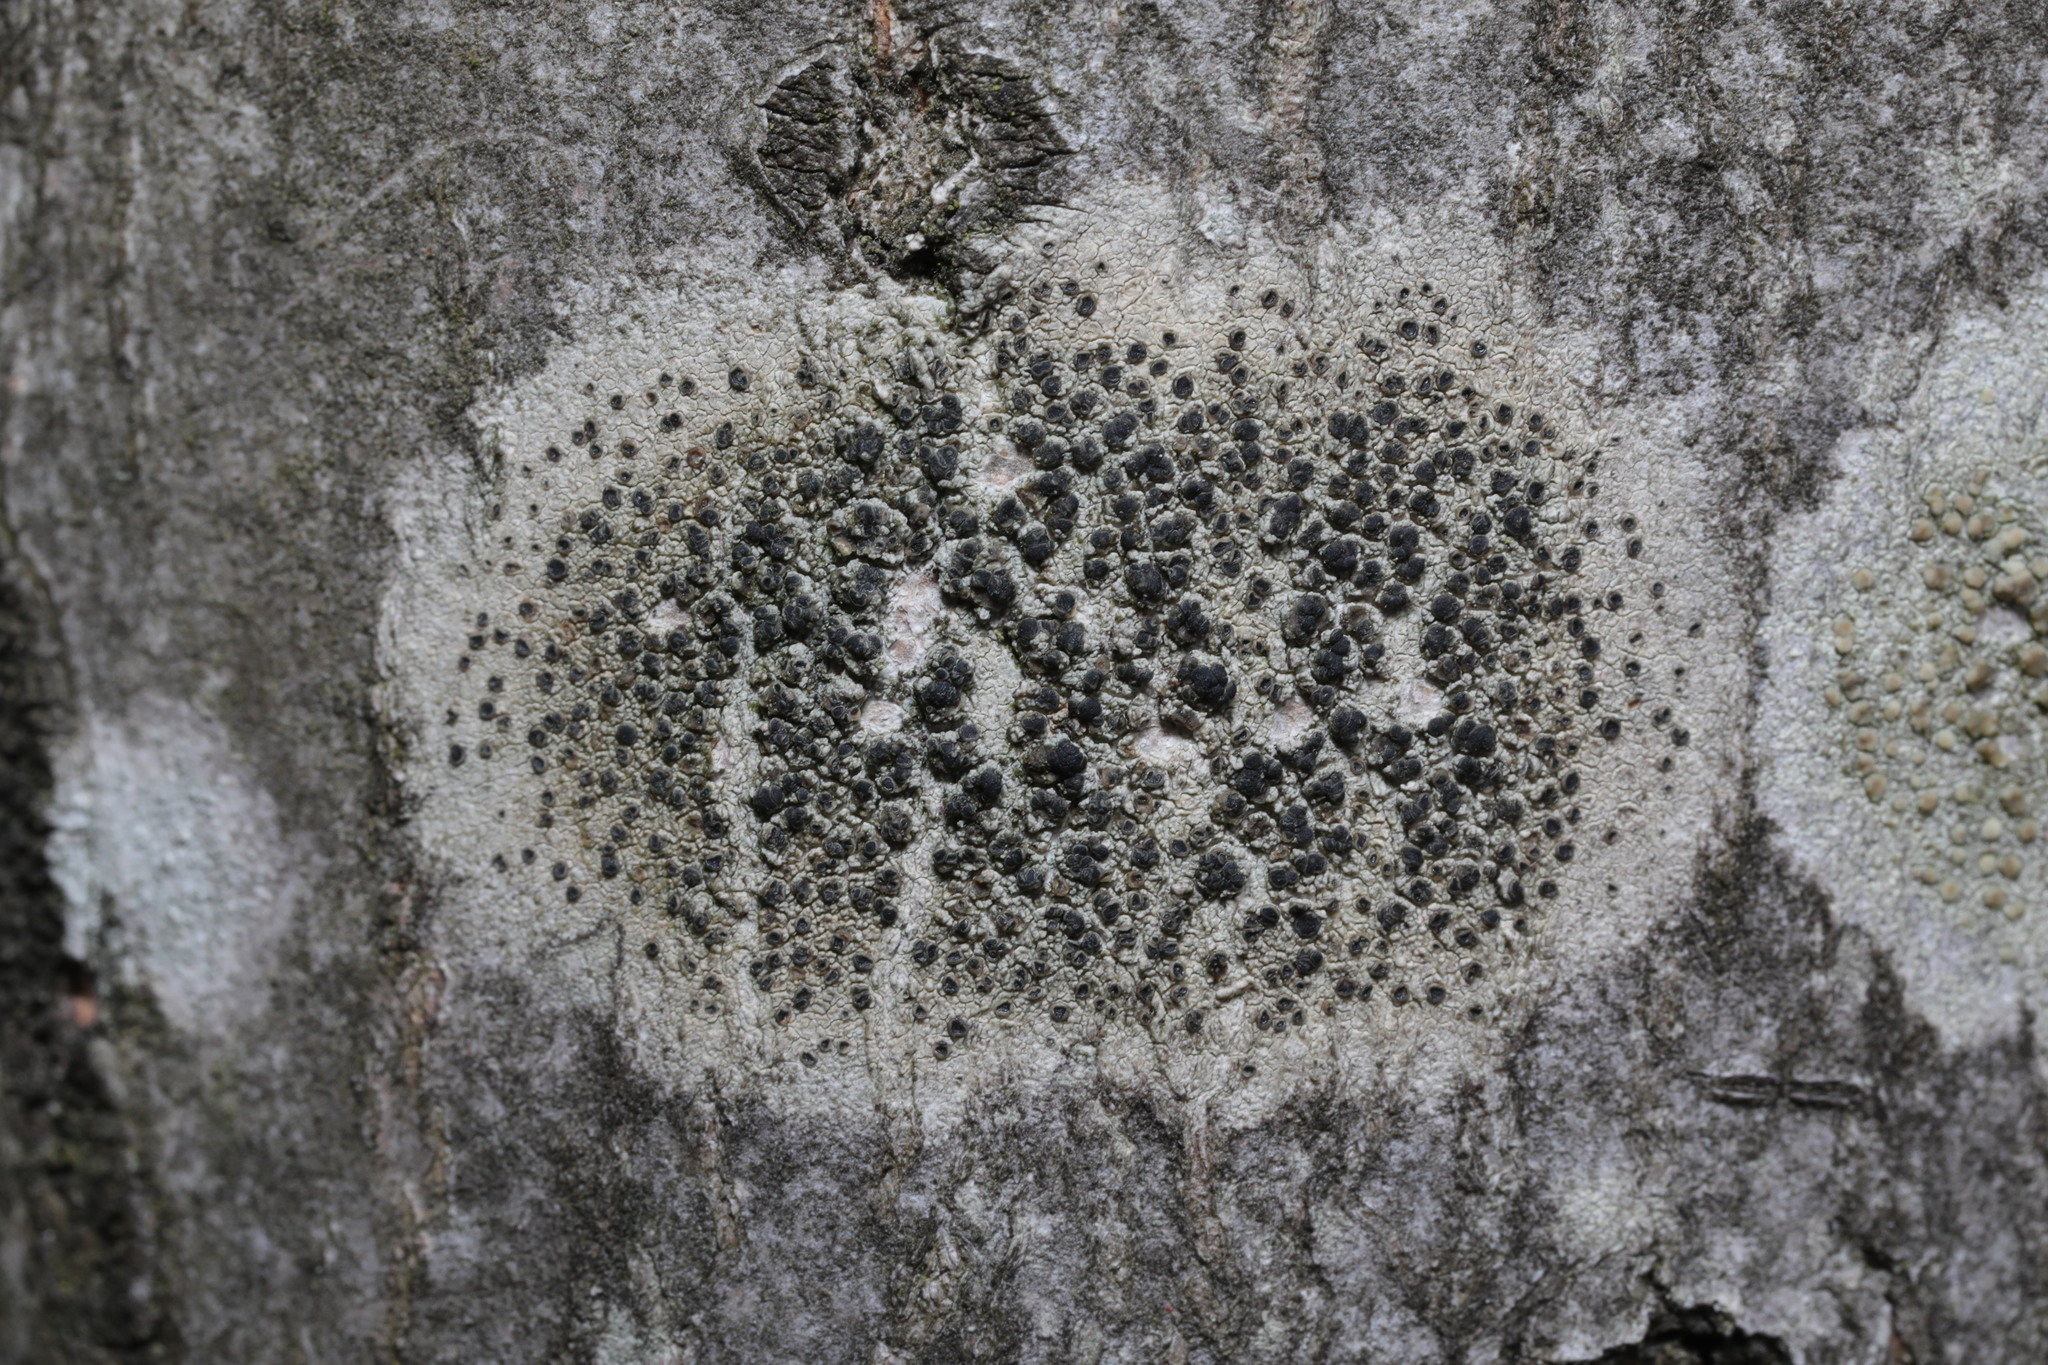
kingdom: Fungi
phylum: Ascomycota
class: Lecanoromycetes
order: Lecanorales
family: Lecanoraceae
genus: Lecidella
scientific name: Lecidella elaeochroma
